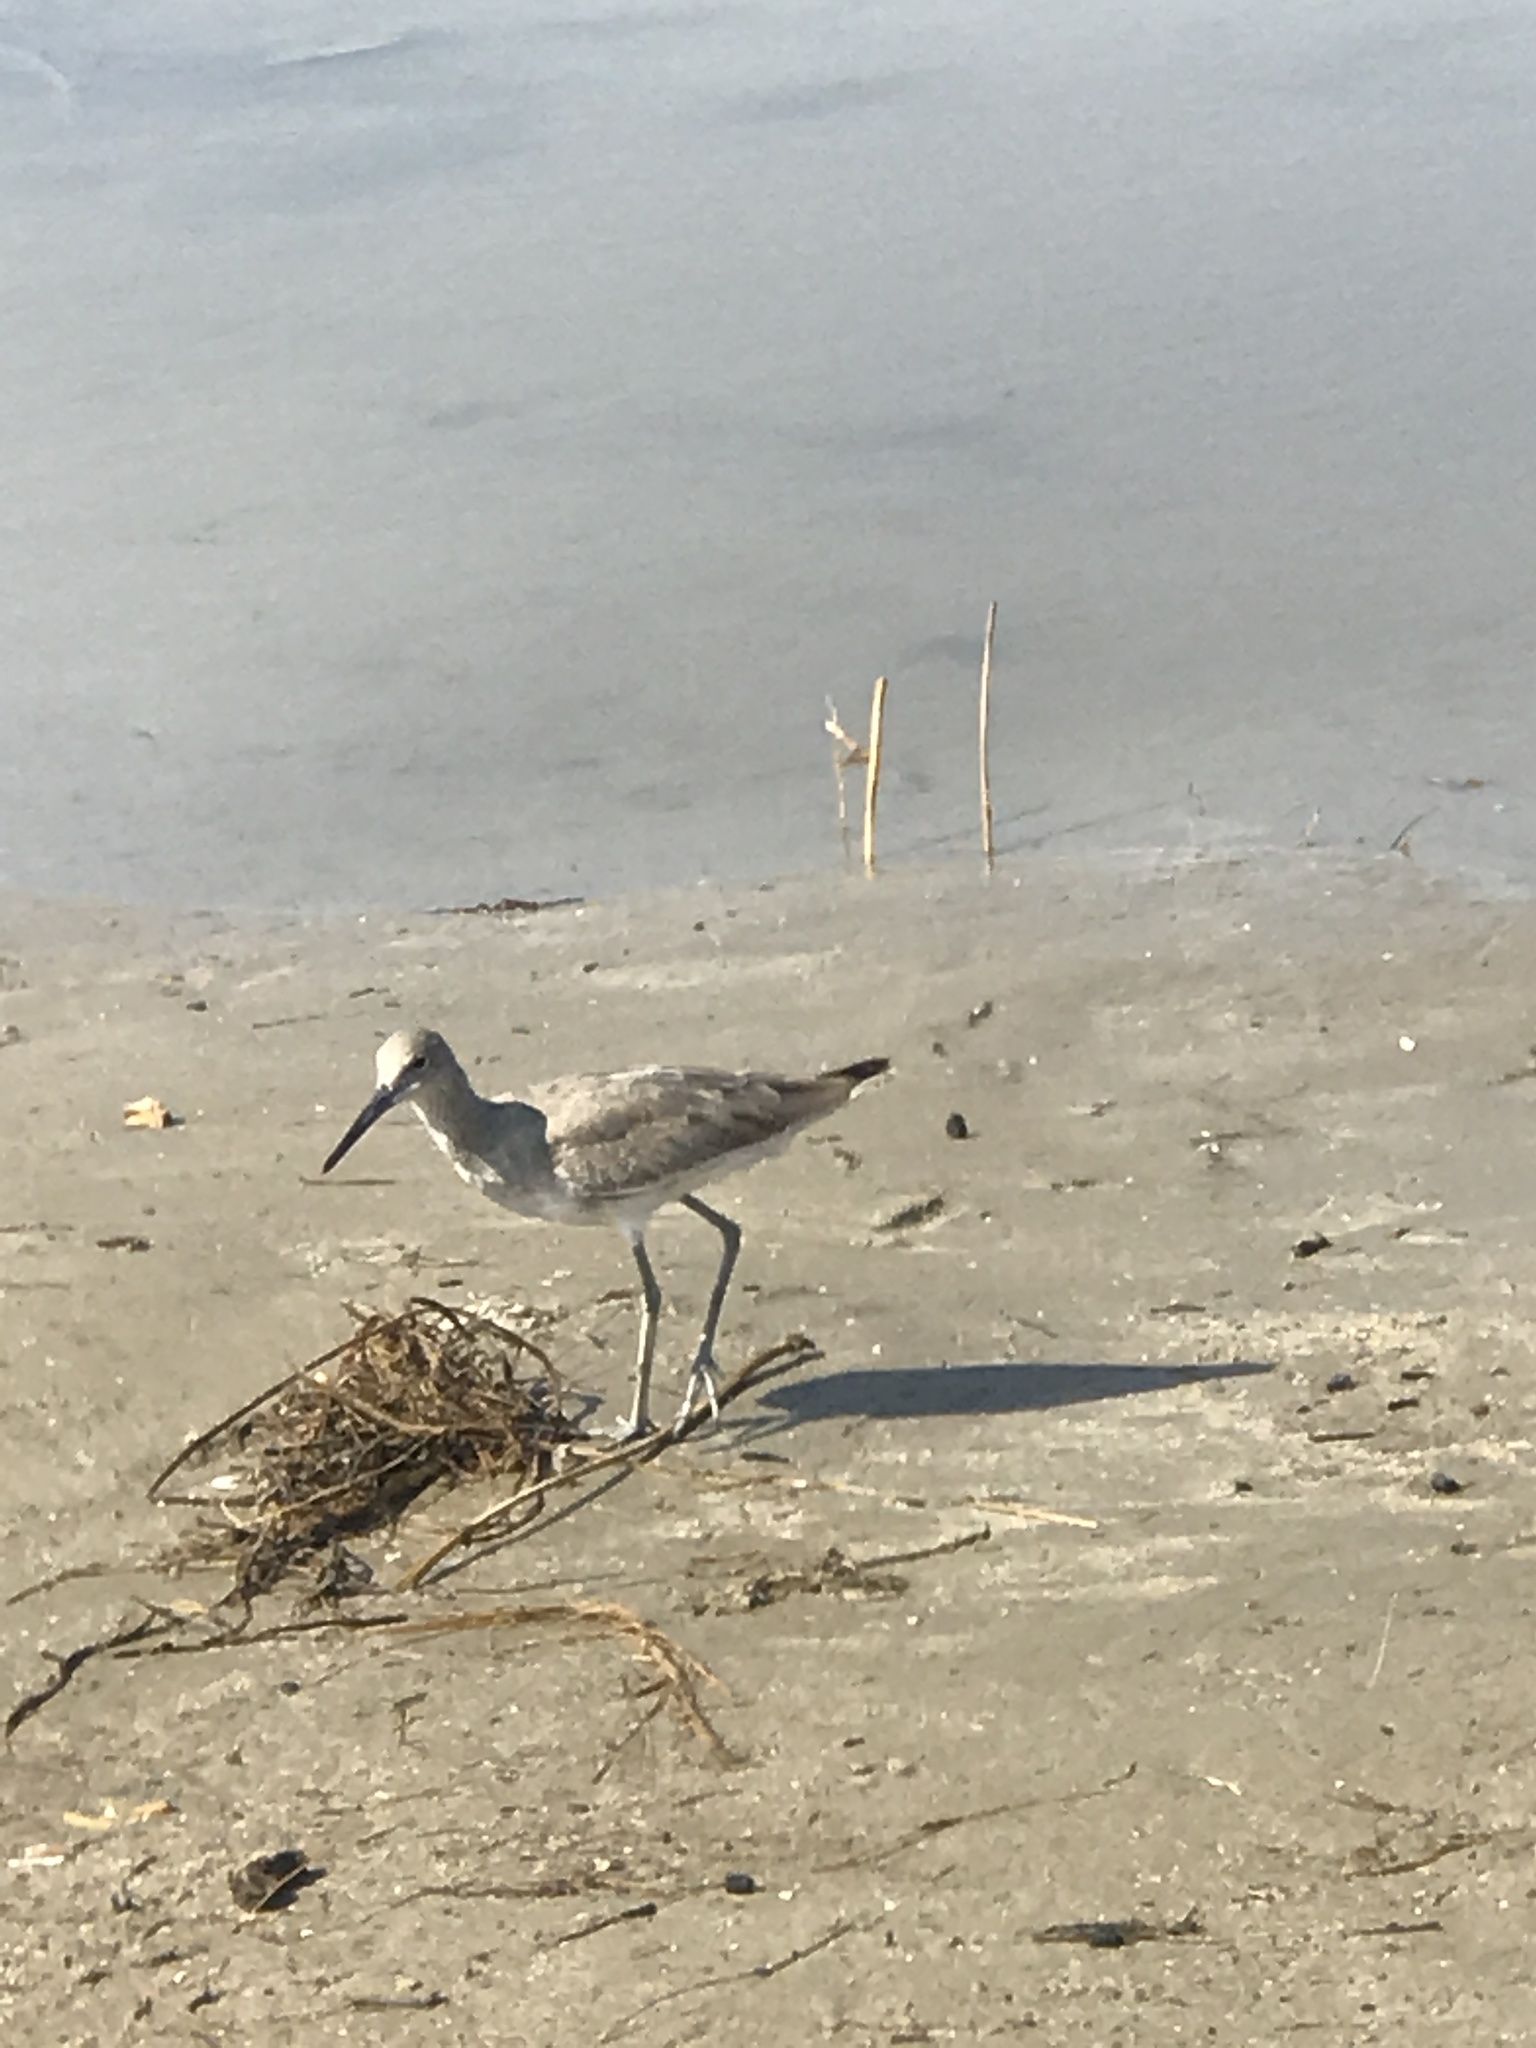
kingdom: Animalia
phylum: Chordata
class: Aves
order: Charadriiformes
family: Scolopacidae
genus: Tringa
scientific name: Tringa semipalmata
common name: Willet
